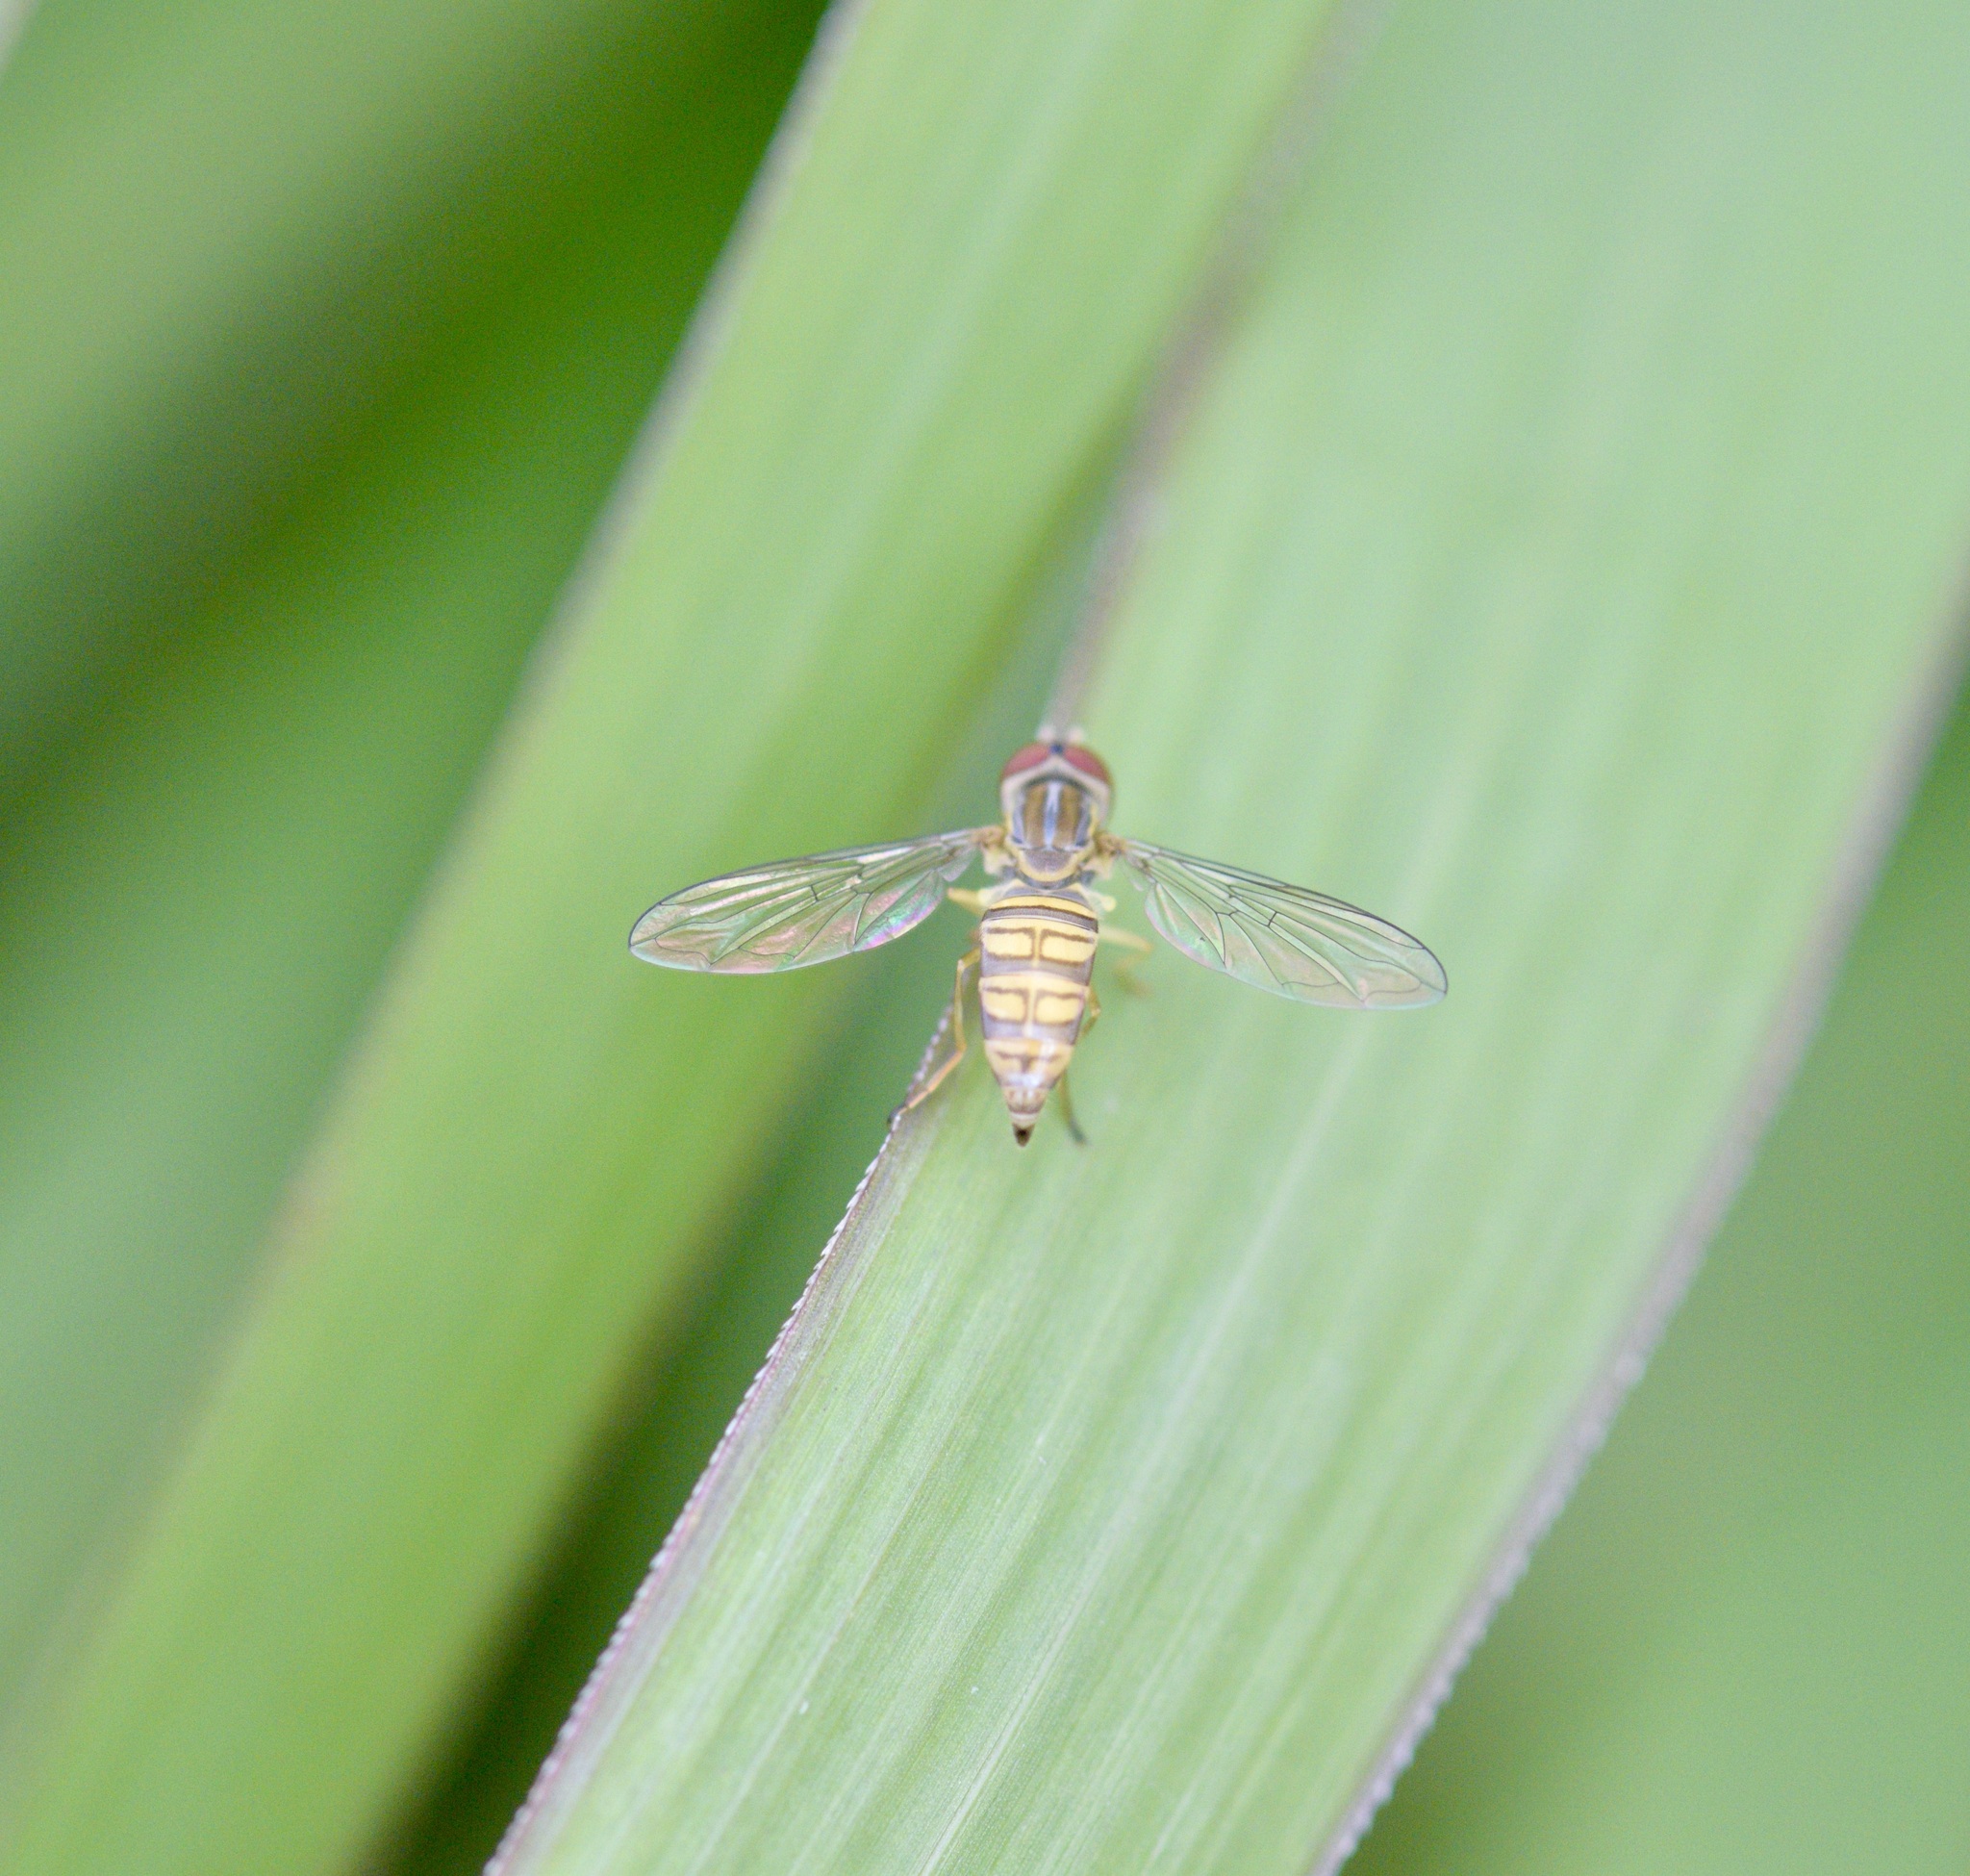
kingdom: Animalia
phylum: Arthropoda
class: Insecta
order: Diptera
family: Syrphidae
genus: Toxomerus
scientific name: Toxomerus politus
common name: Maize calligrapher
